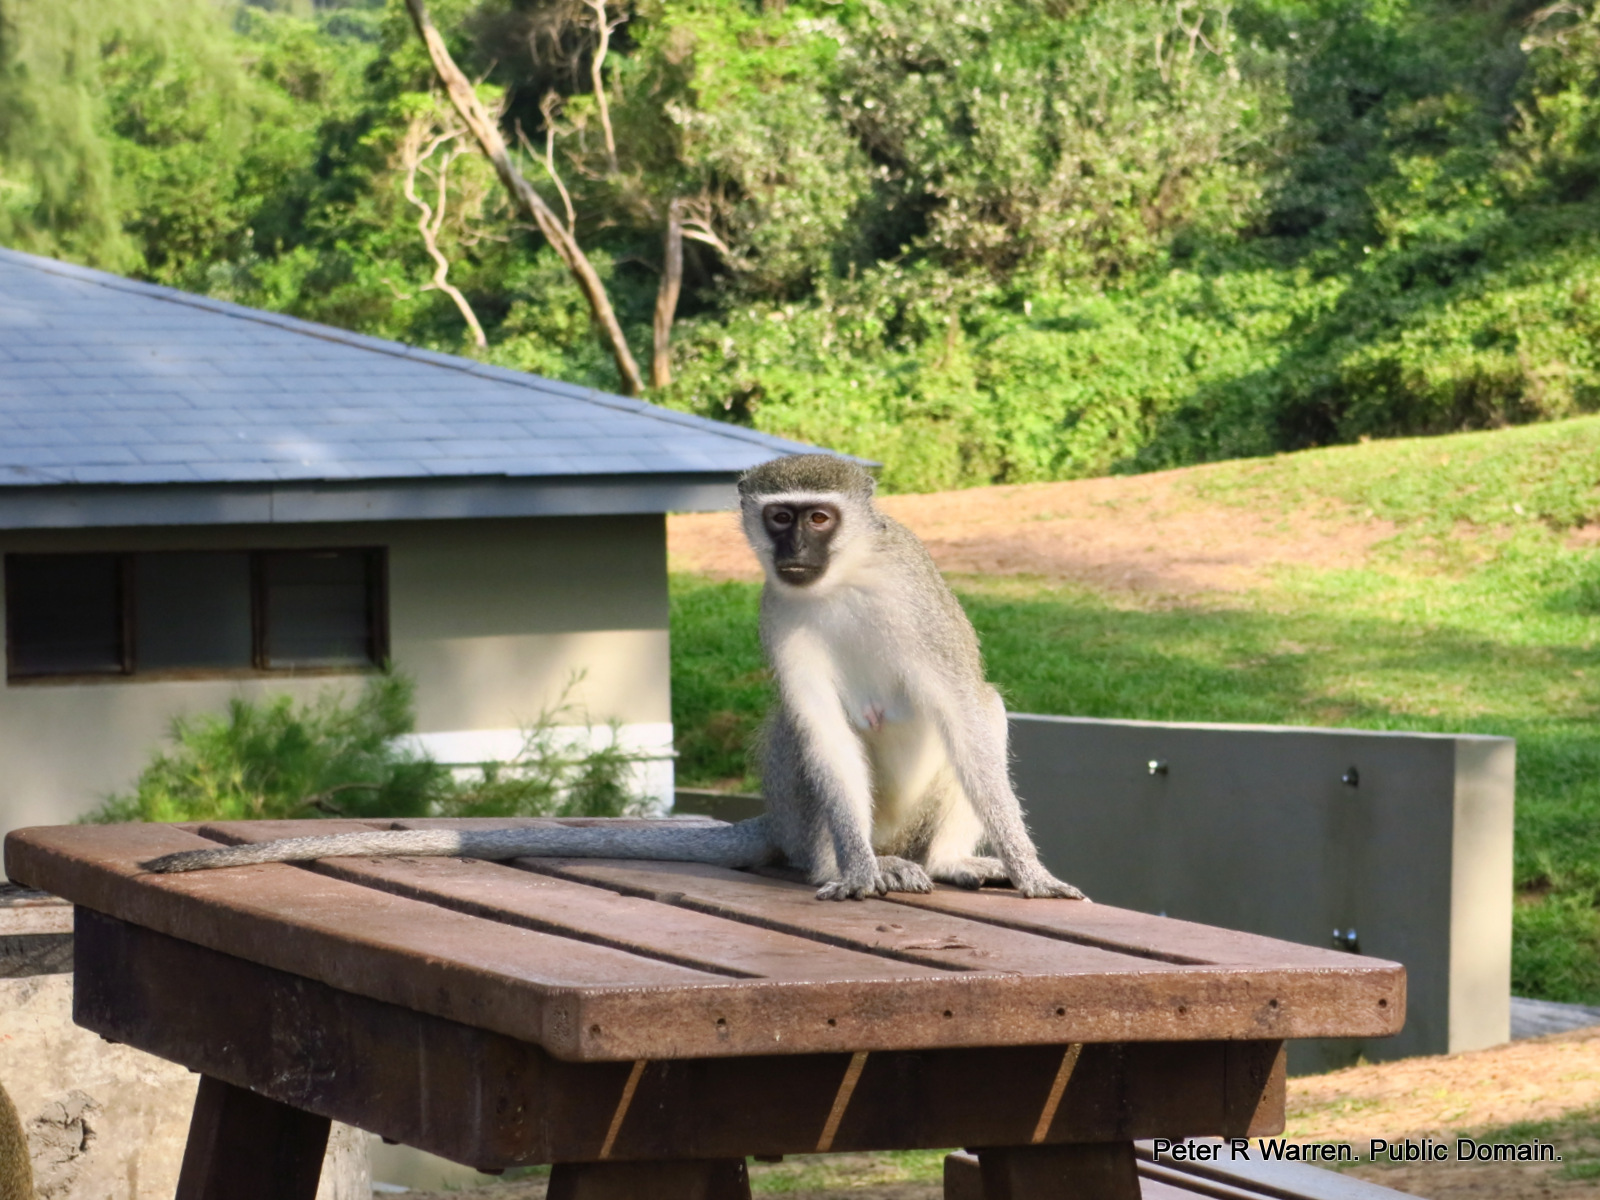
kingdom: Animalia
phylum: Chordata
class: Mammalia
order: Primates
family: Cercopithecidae
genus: Chlorocebus
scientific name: Chlorocebus pygerythrus
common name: Vervet monkey
